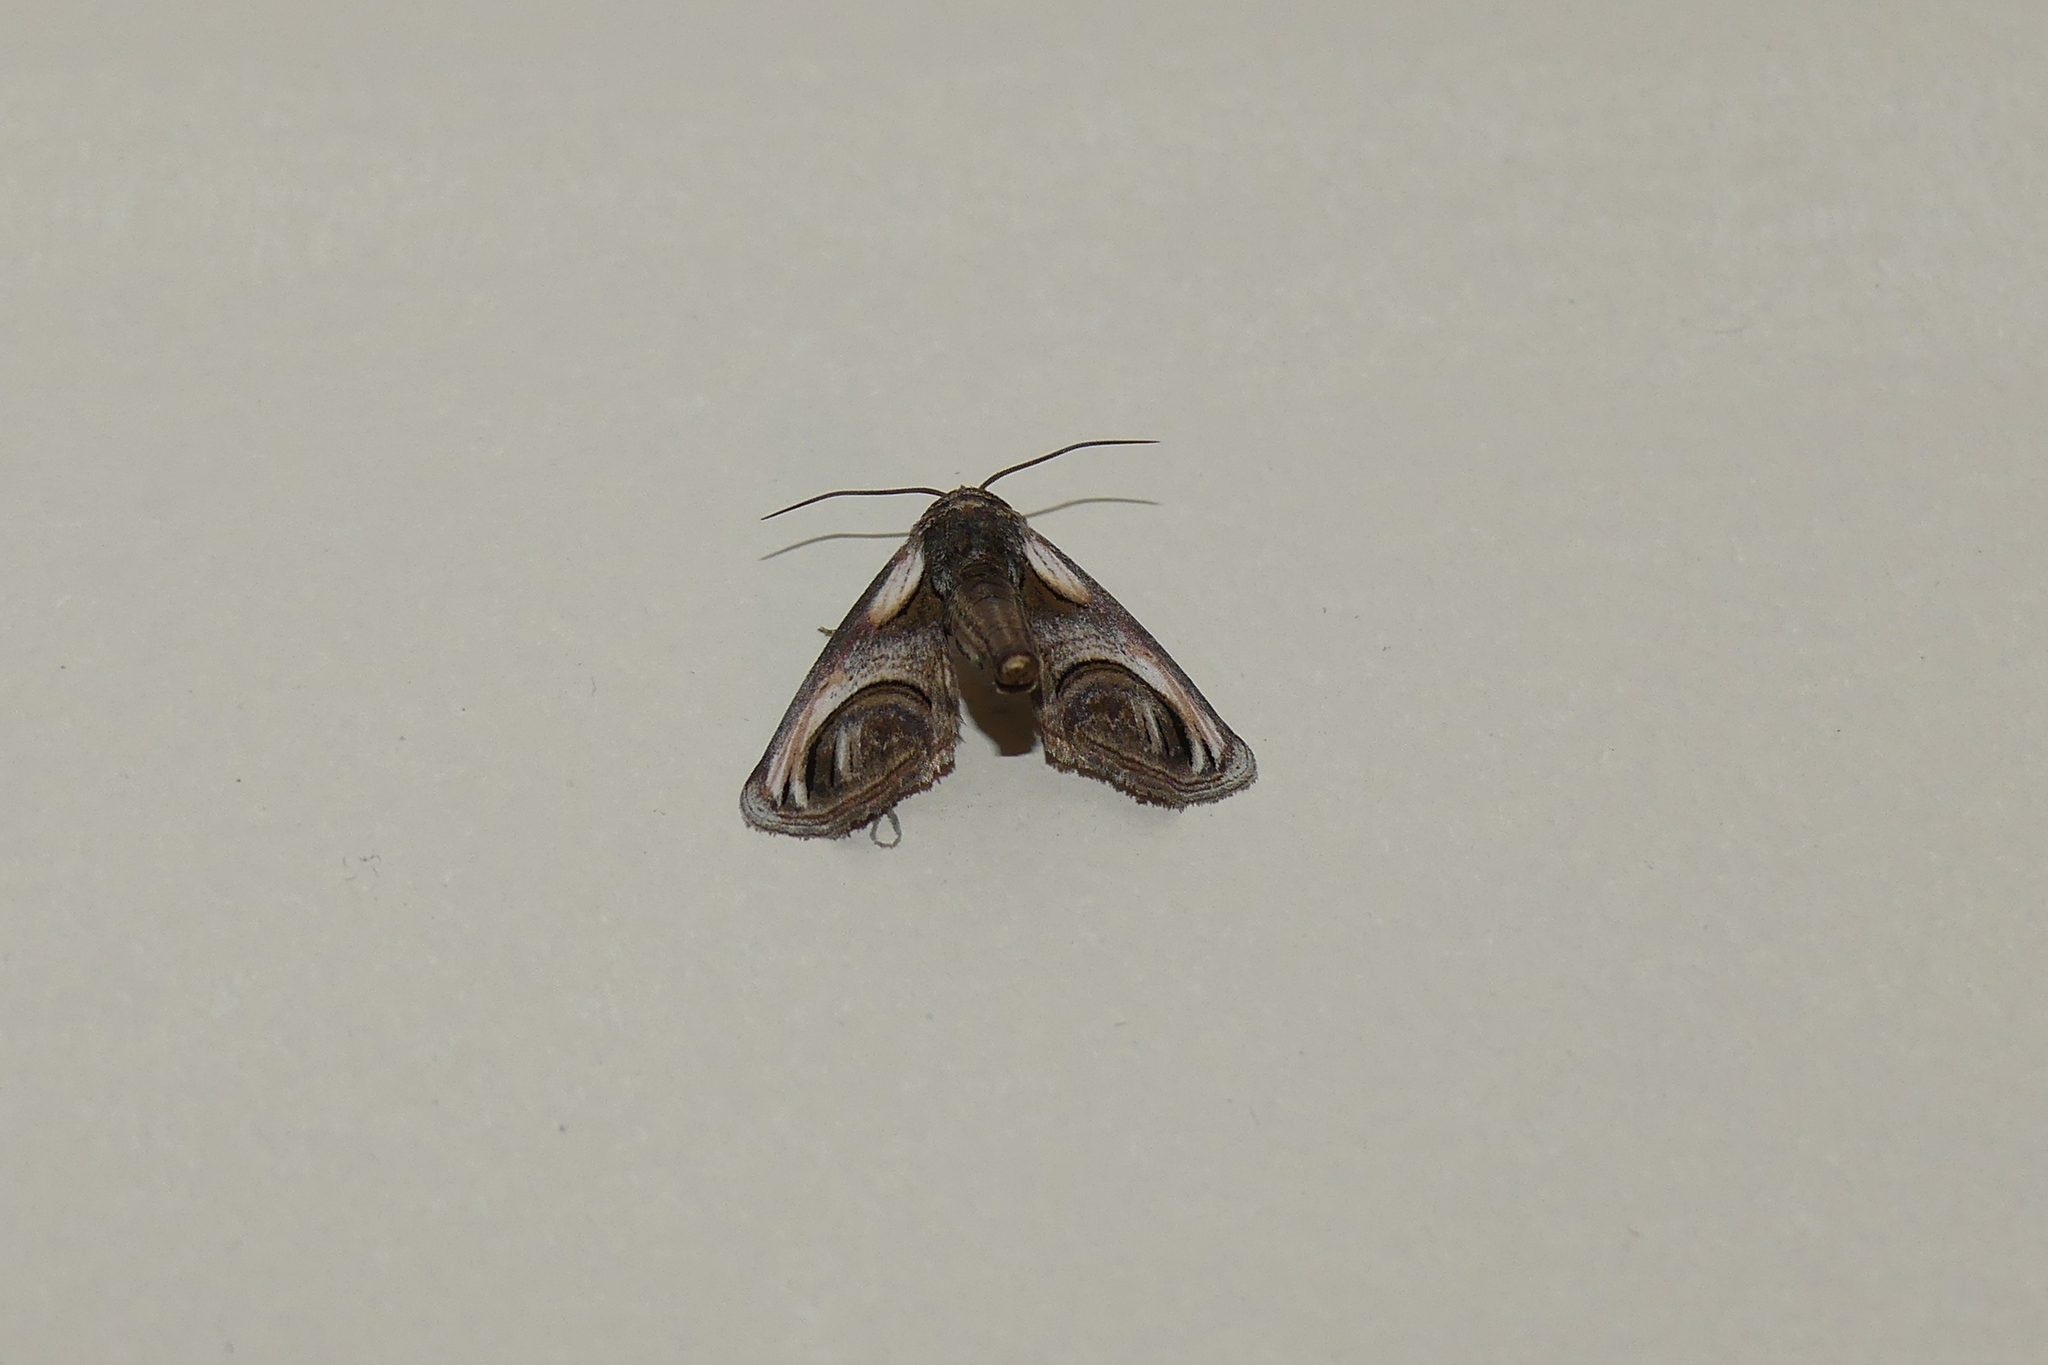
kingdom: Animalia
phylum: Arthropoda
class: Insecta
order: Lepidoptera
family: Euteliidae
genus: Paectes
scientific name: Paectes oculatrix
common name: Eyed paectes moth
